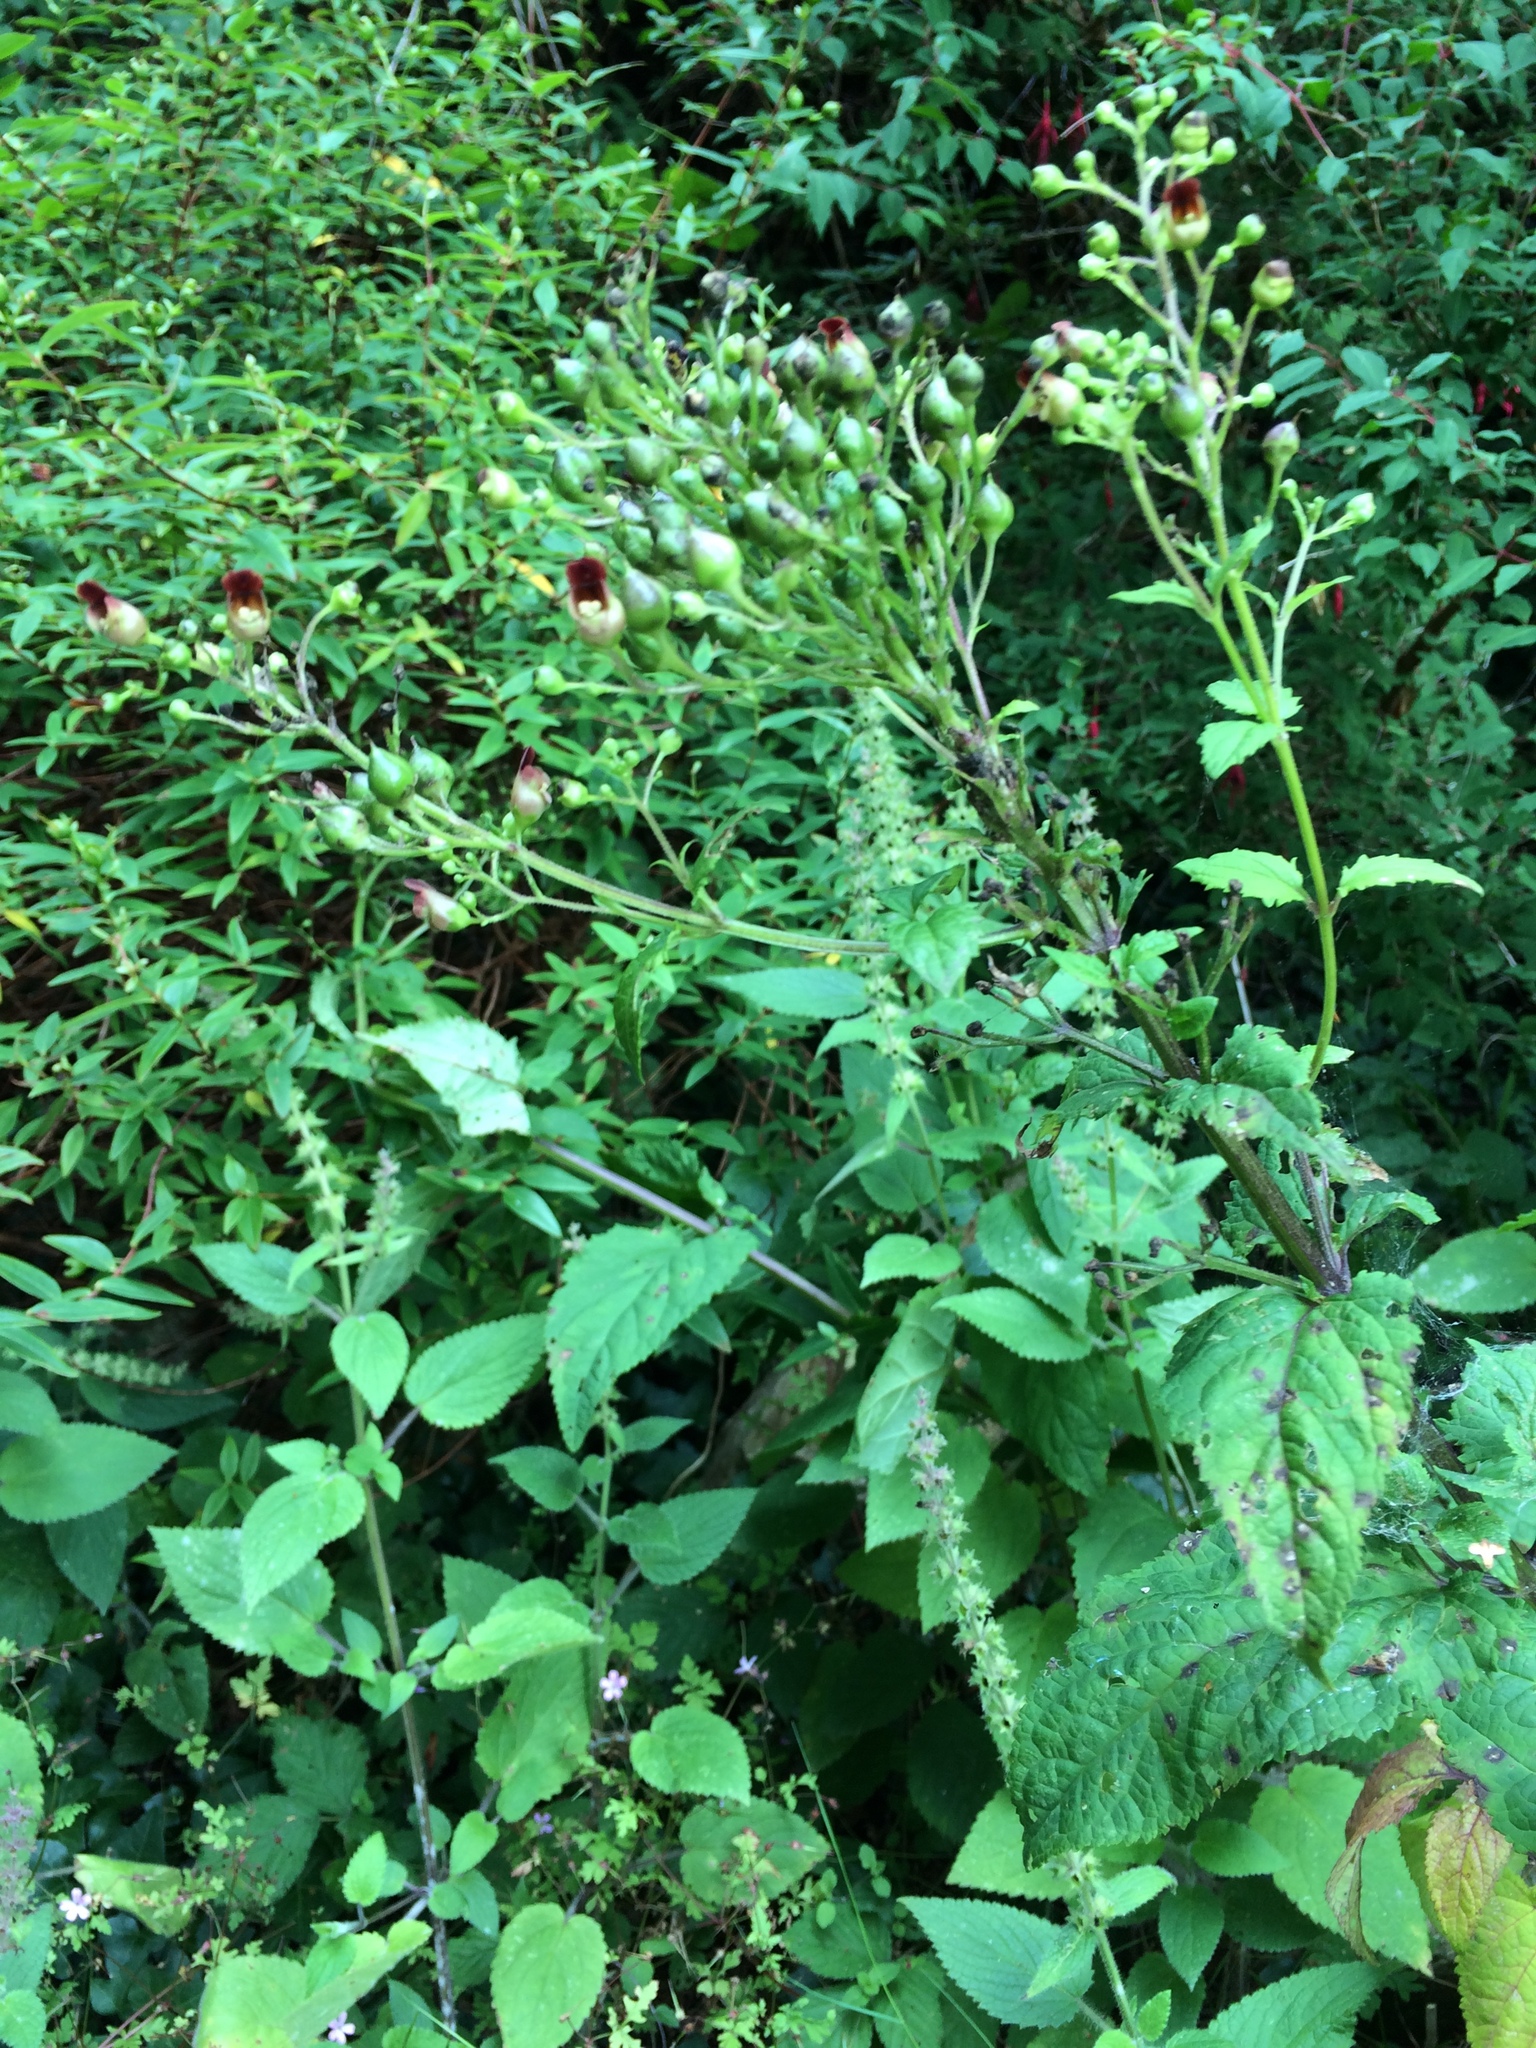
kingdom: Plantae
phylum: Tracheophyta
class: Magnoliopsida
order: Lamiales
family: Scrophulariaceae
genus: Scrophularia
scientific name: Scrophularia nodosa
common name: Common figwort
